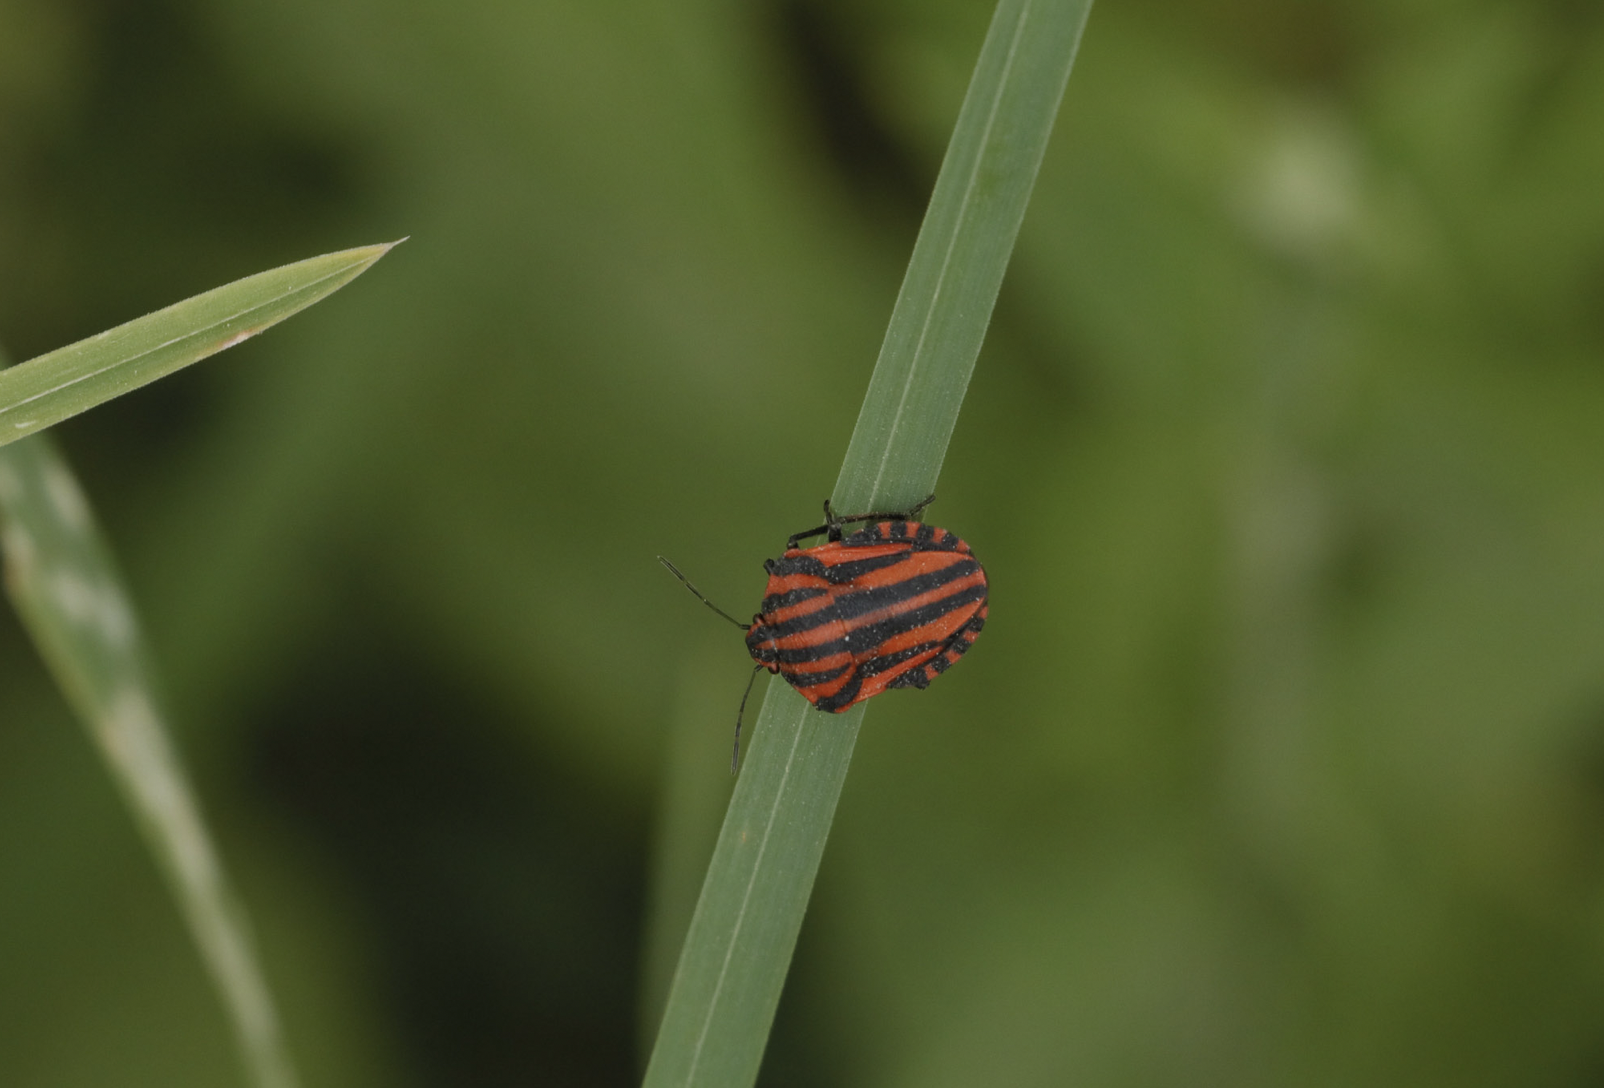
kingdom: Animalia
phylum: Arthropoda
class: Insecta
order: Hemiptera
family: Pentatomidae
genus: Graphosoma
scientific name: Graphosoma italicum
